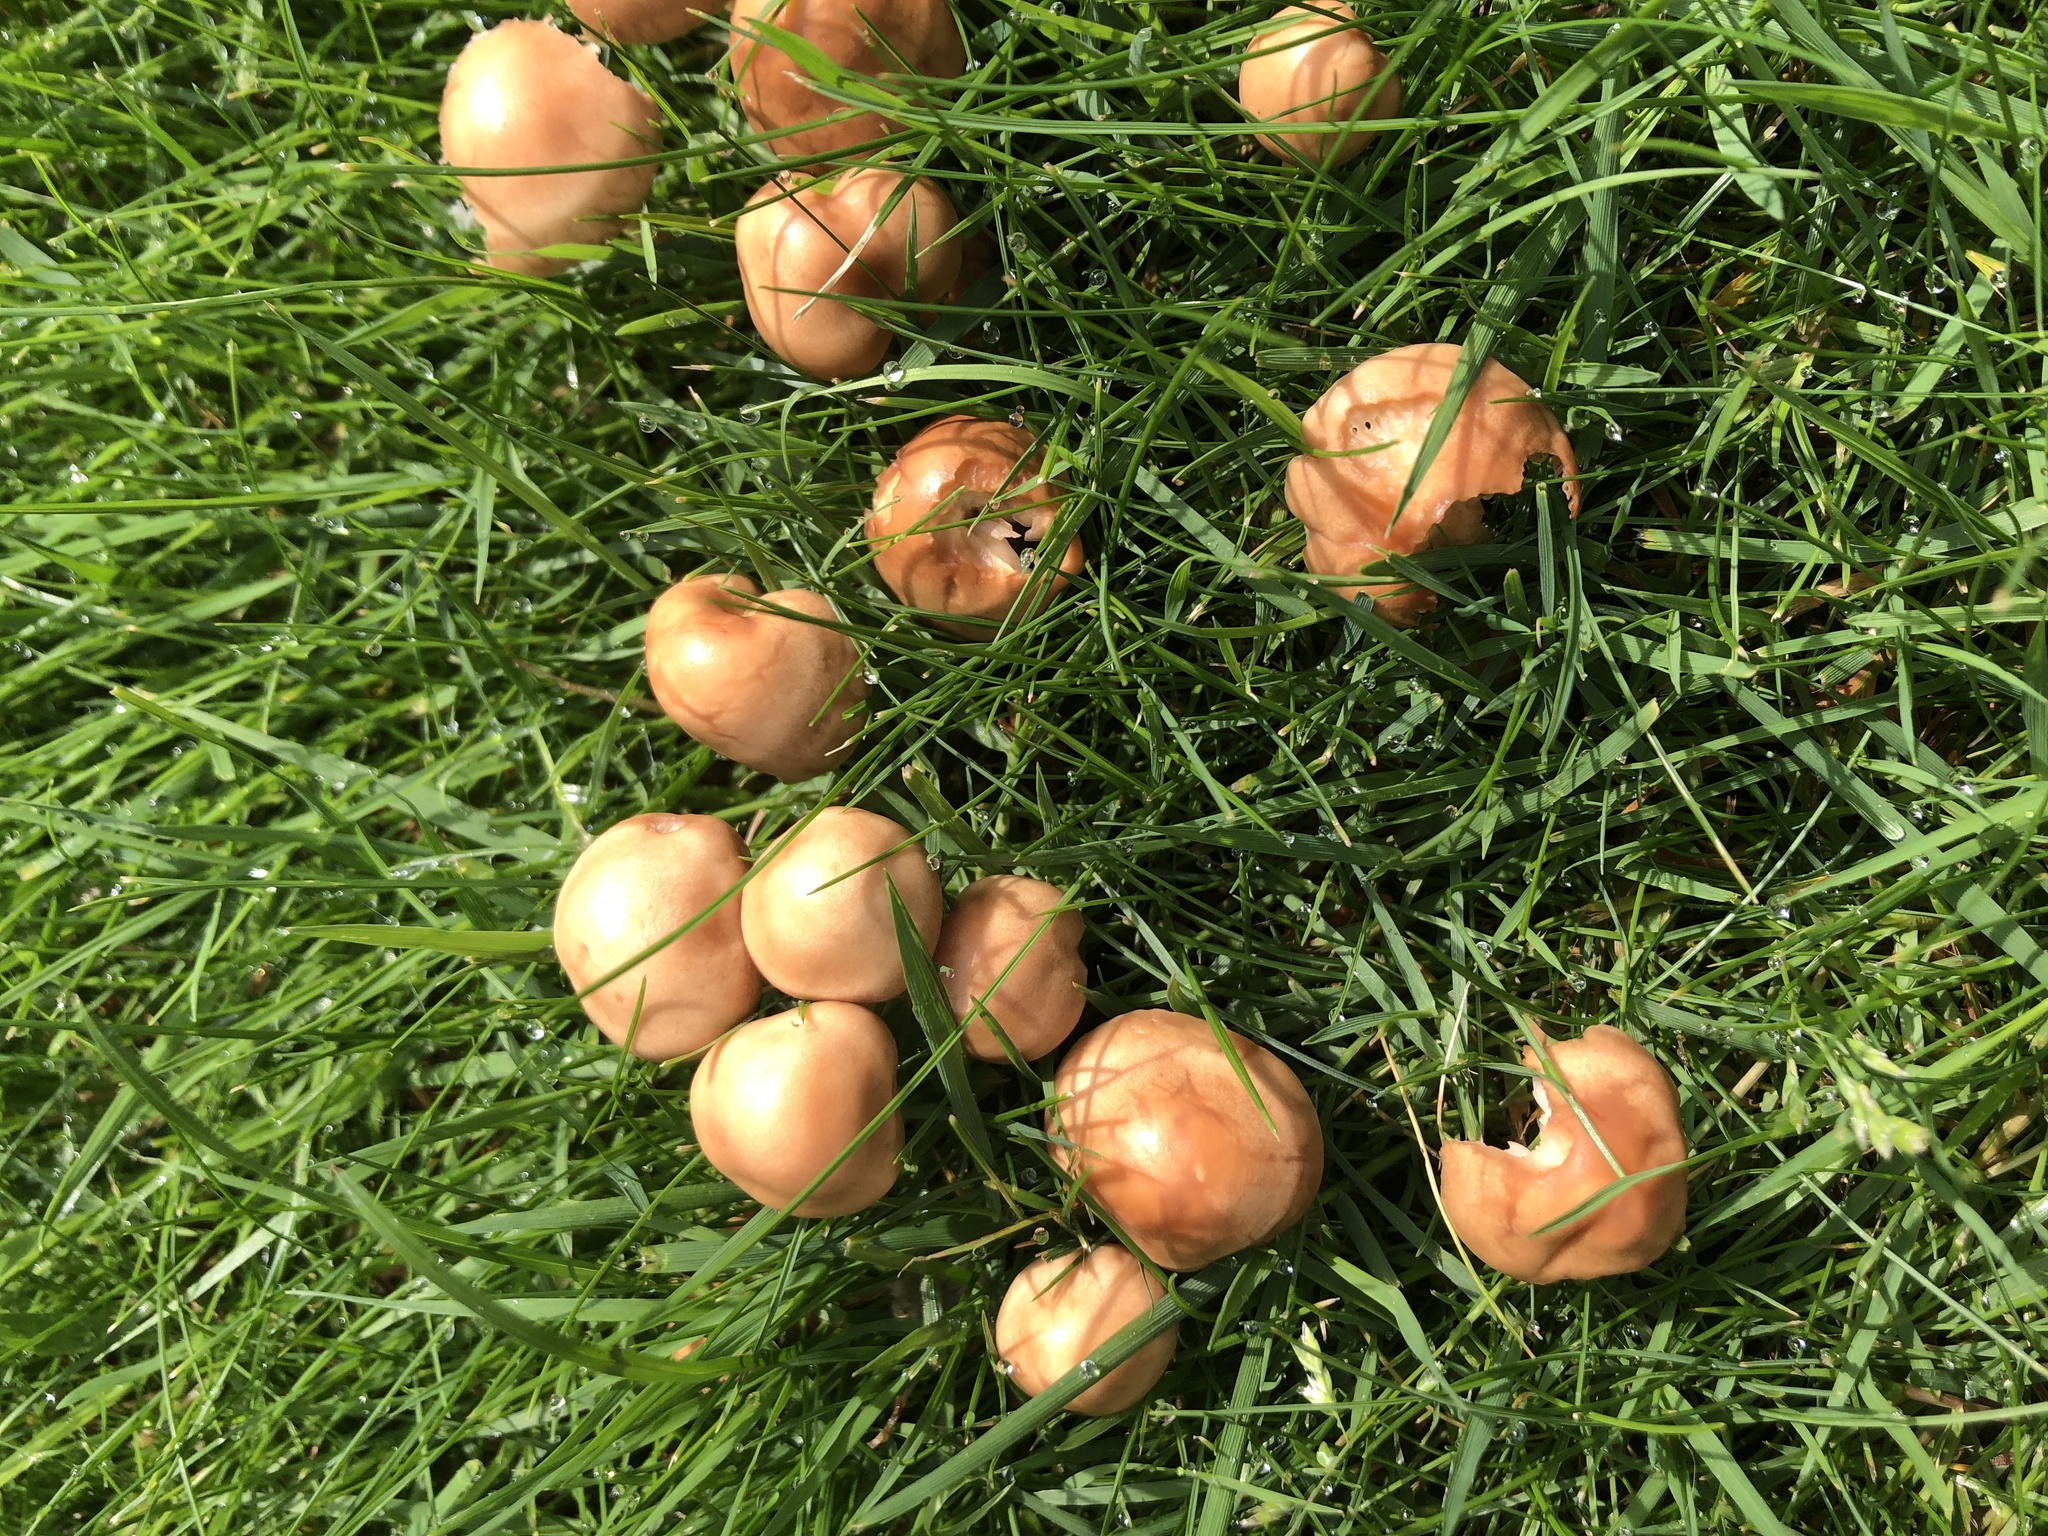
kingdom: Fungi
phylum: Basidiomycota
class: Agaricomycetes
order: Agaricales
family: Marasmiaceae
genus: Marasmius
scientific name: Marasmius oreades
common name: Fairy ring champignon
